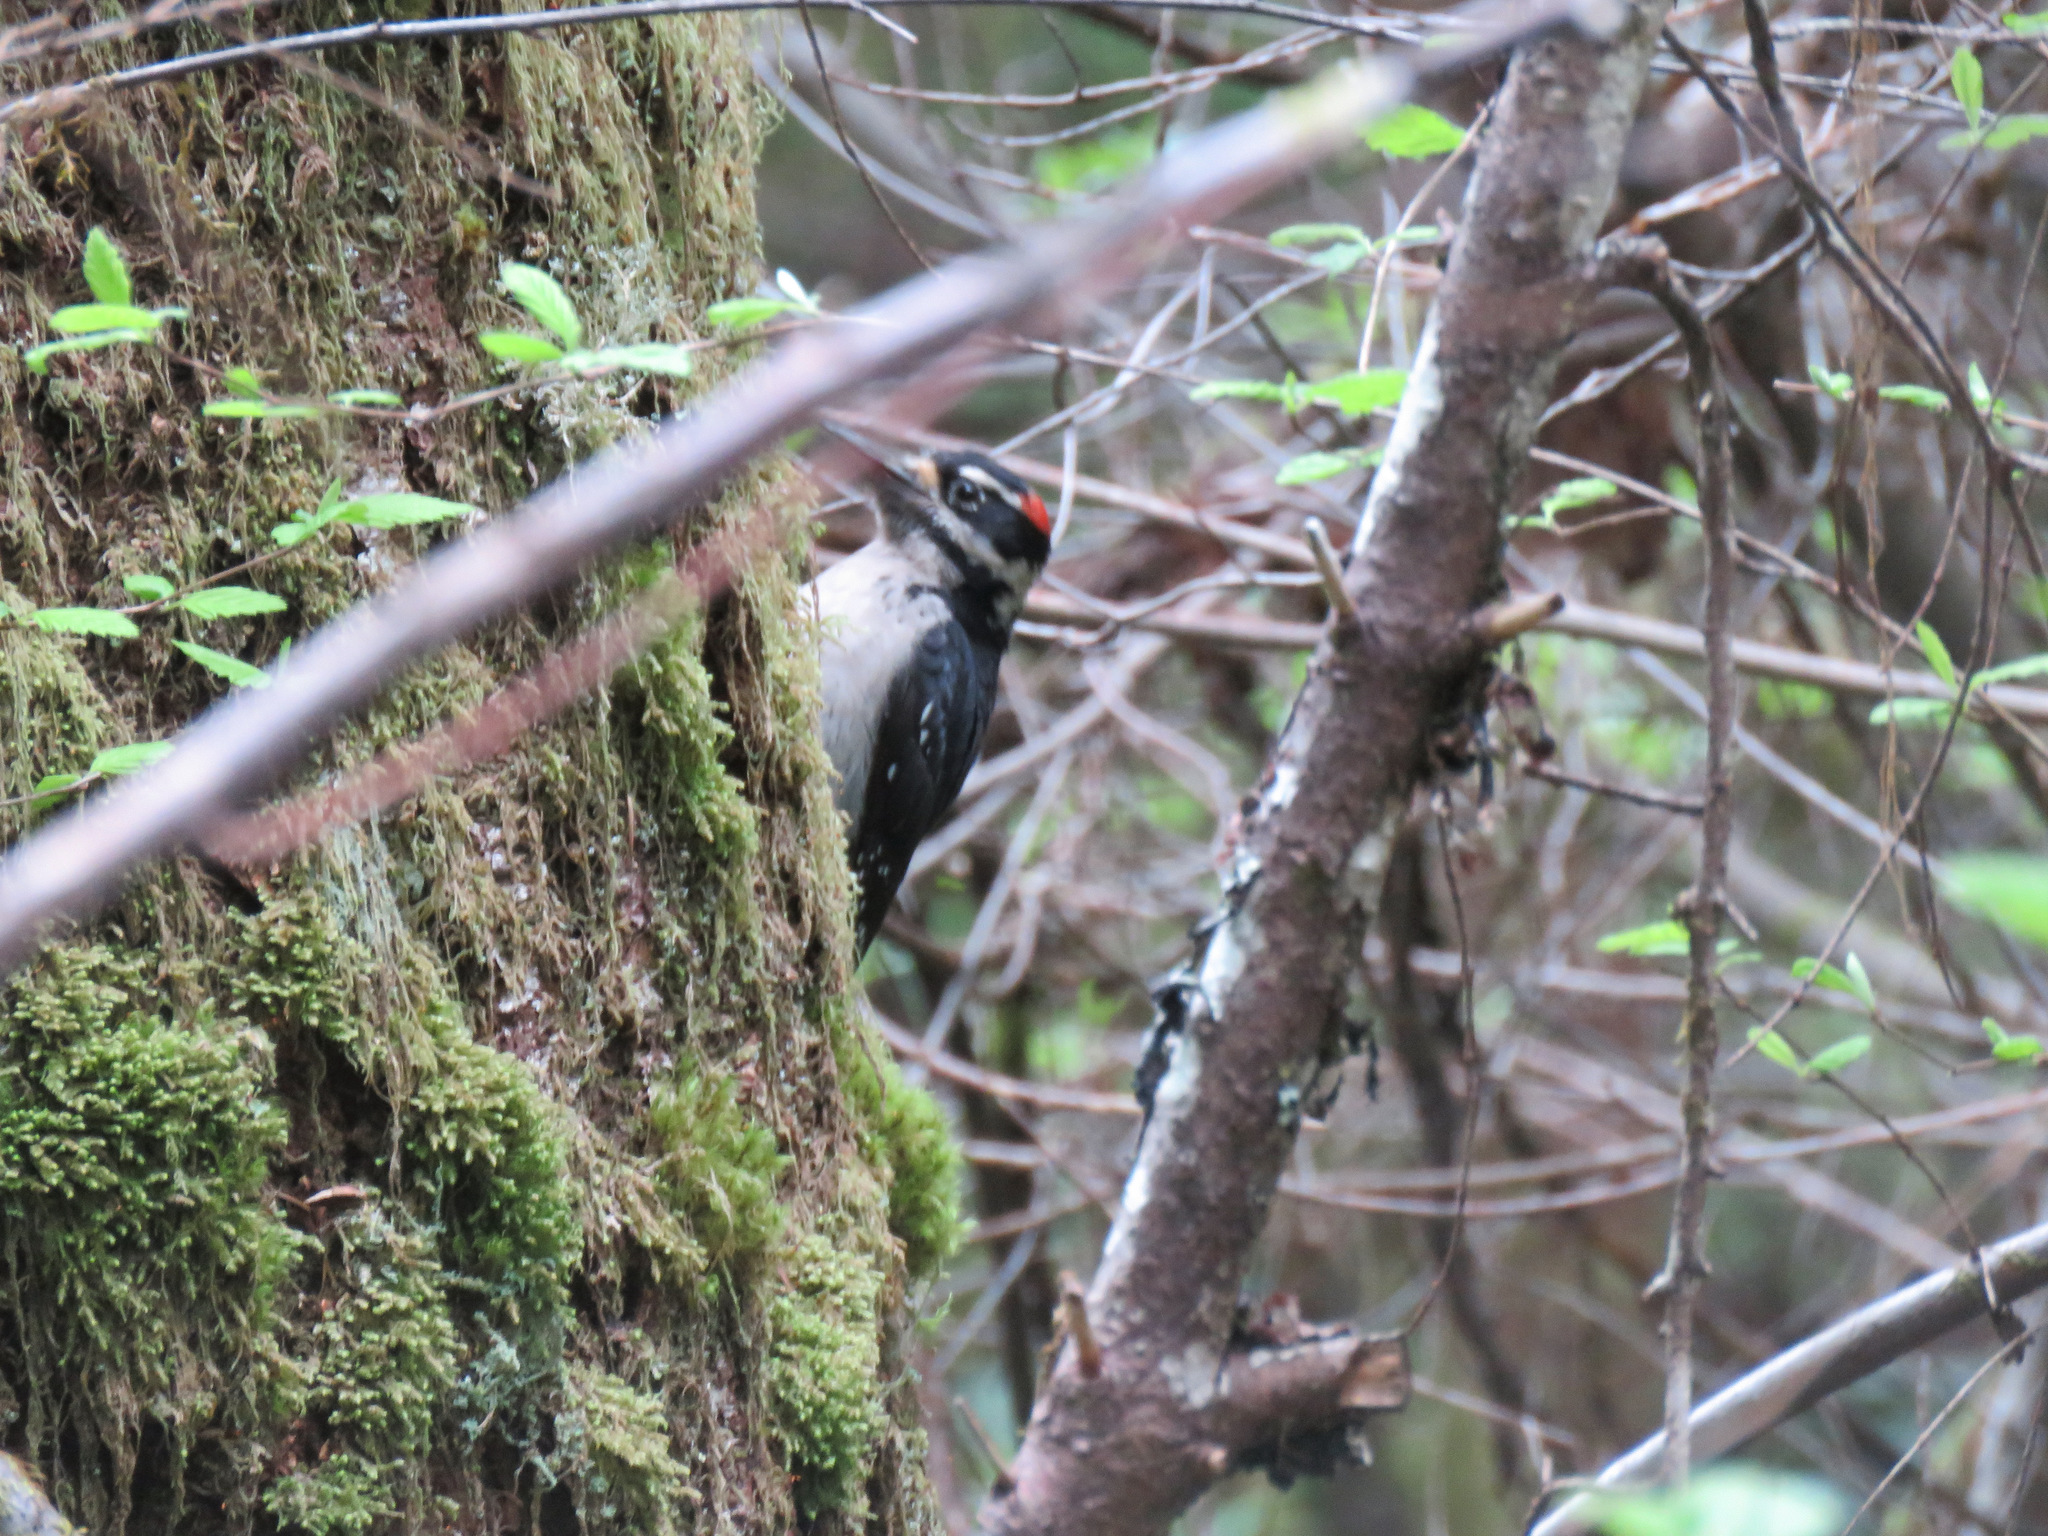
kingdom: Animalia
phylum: Chordata
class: Aves
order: Piciformes
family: Picidae
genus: Leuconotopicus
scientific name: Leuconotopicus villosus
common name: Hairy woodpecker
